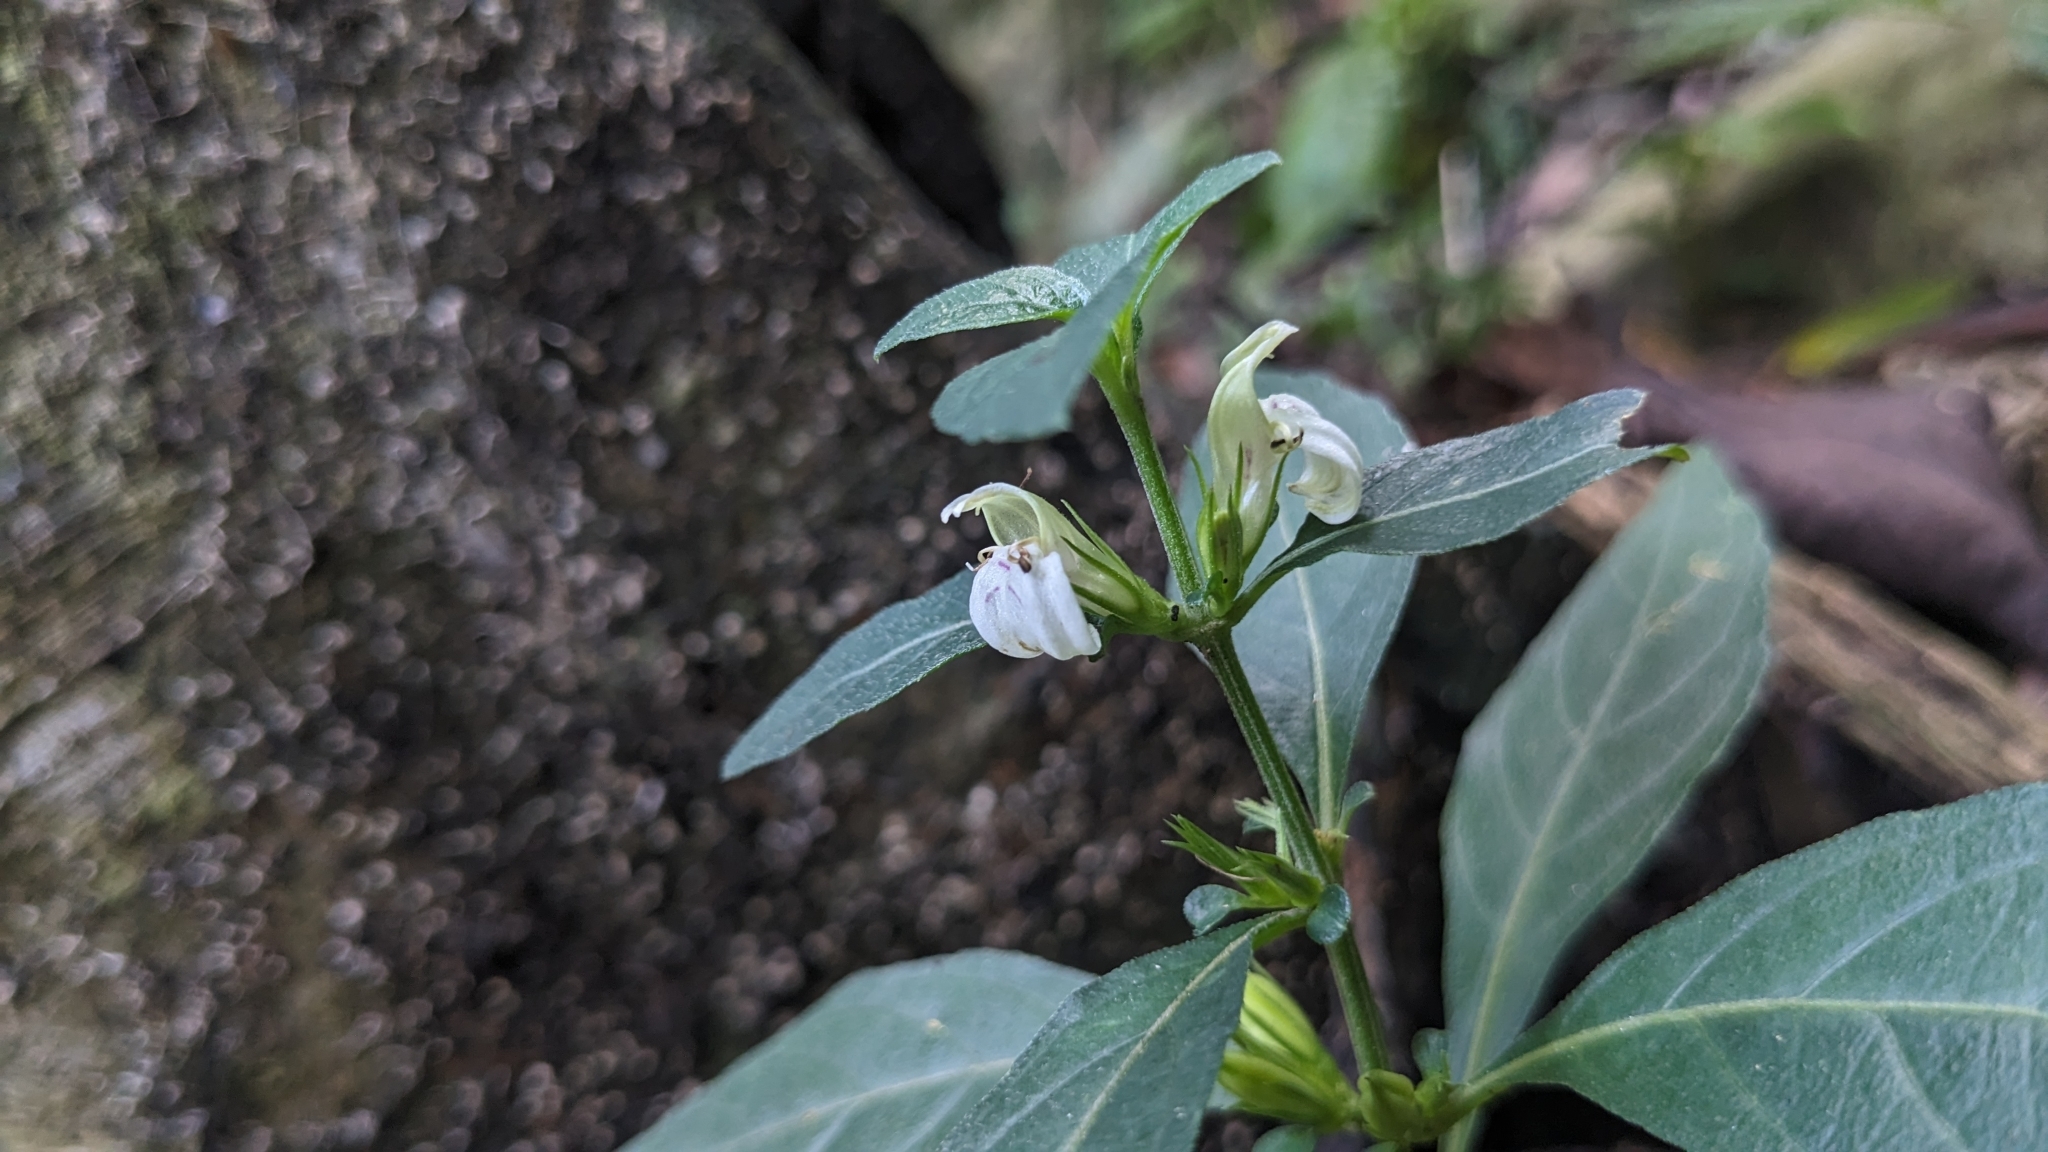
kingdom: Plantae
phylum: Tracheophyta
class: Magnoliopsida
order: Lamiales
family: Acanthaceae
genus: Justicia
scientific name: Justicia quadrifaria
